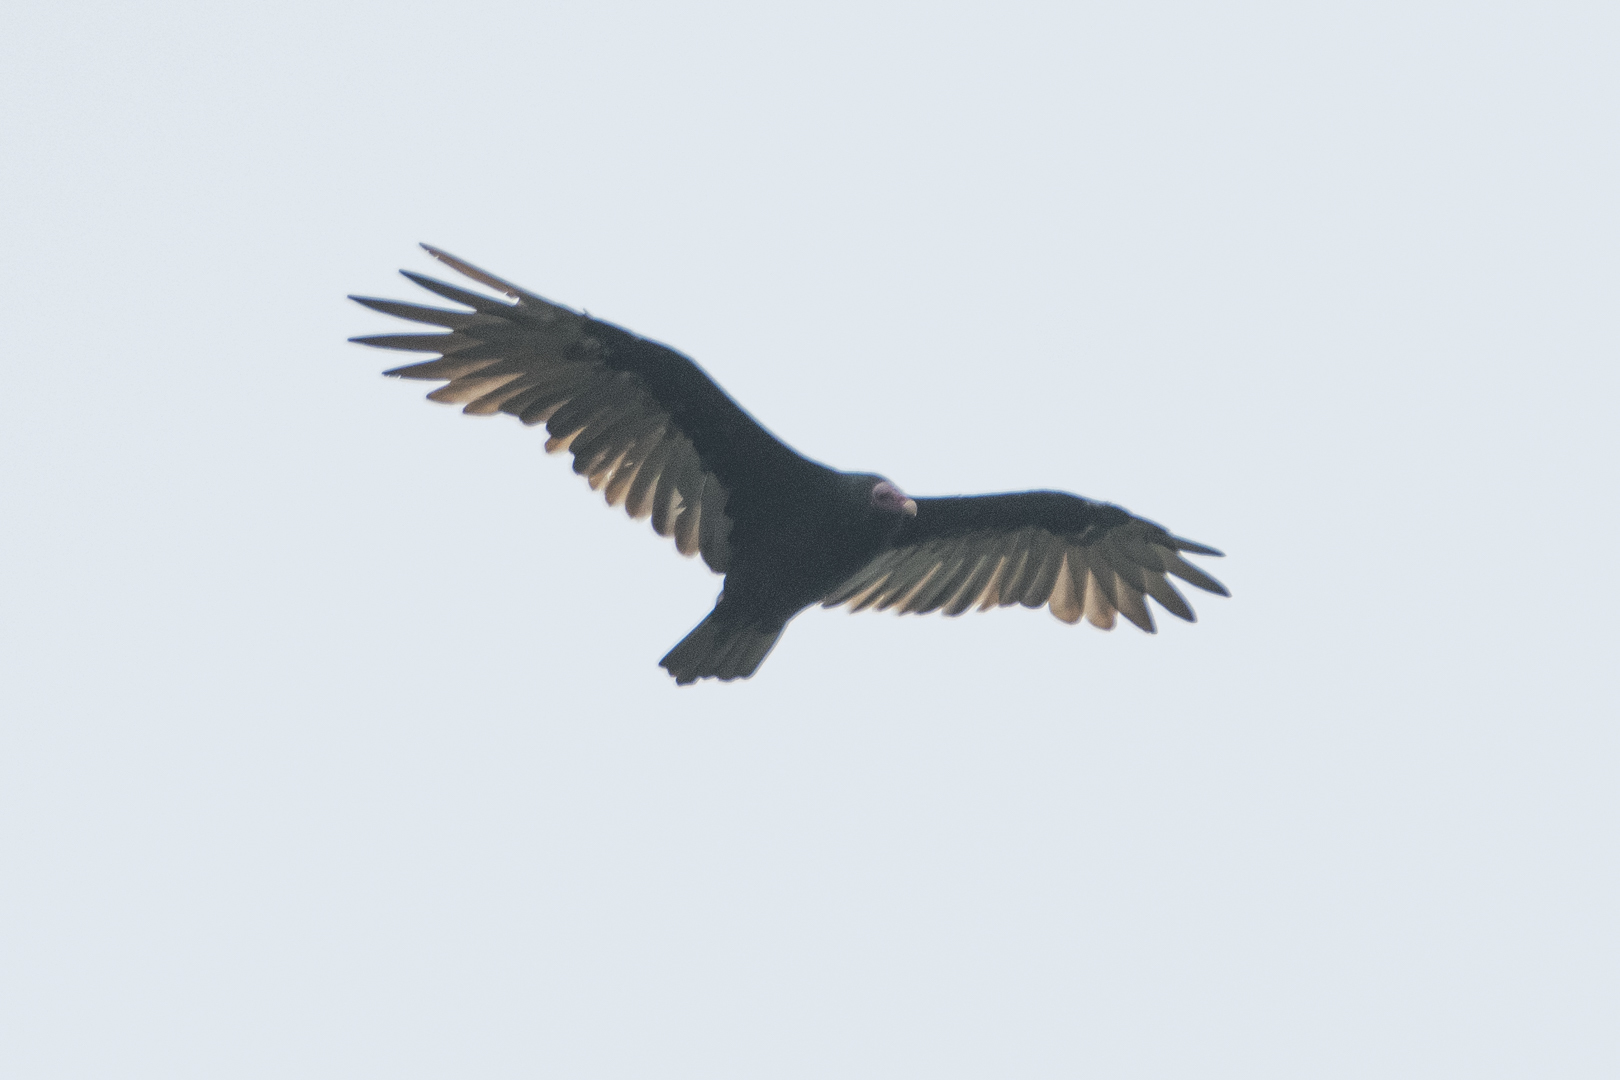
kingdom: Animalia
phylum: Chordata
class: Aves
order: Accipitriformes
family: Cathartidae
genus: Cathartes
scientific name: Cathartes aura
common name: Turkey vulture
